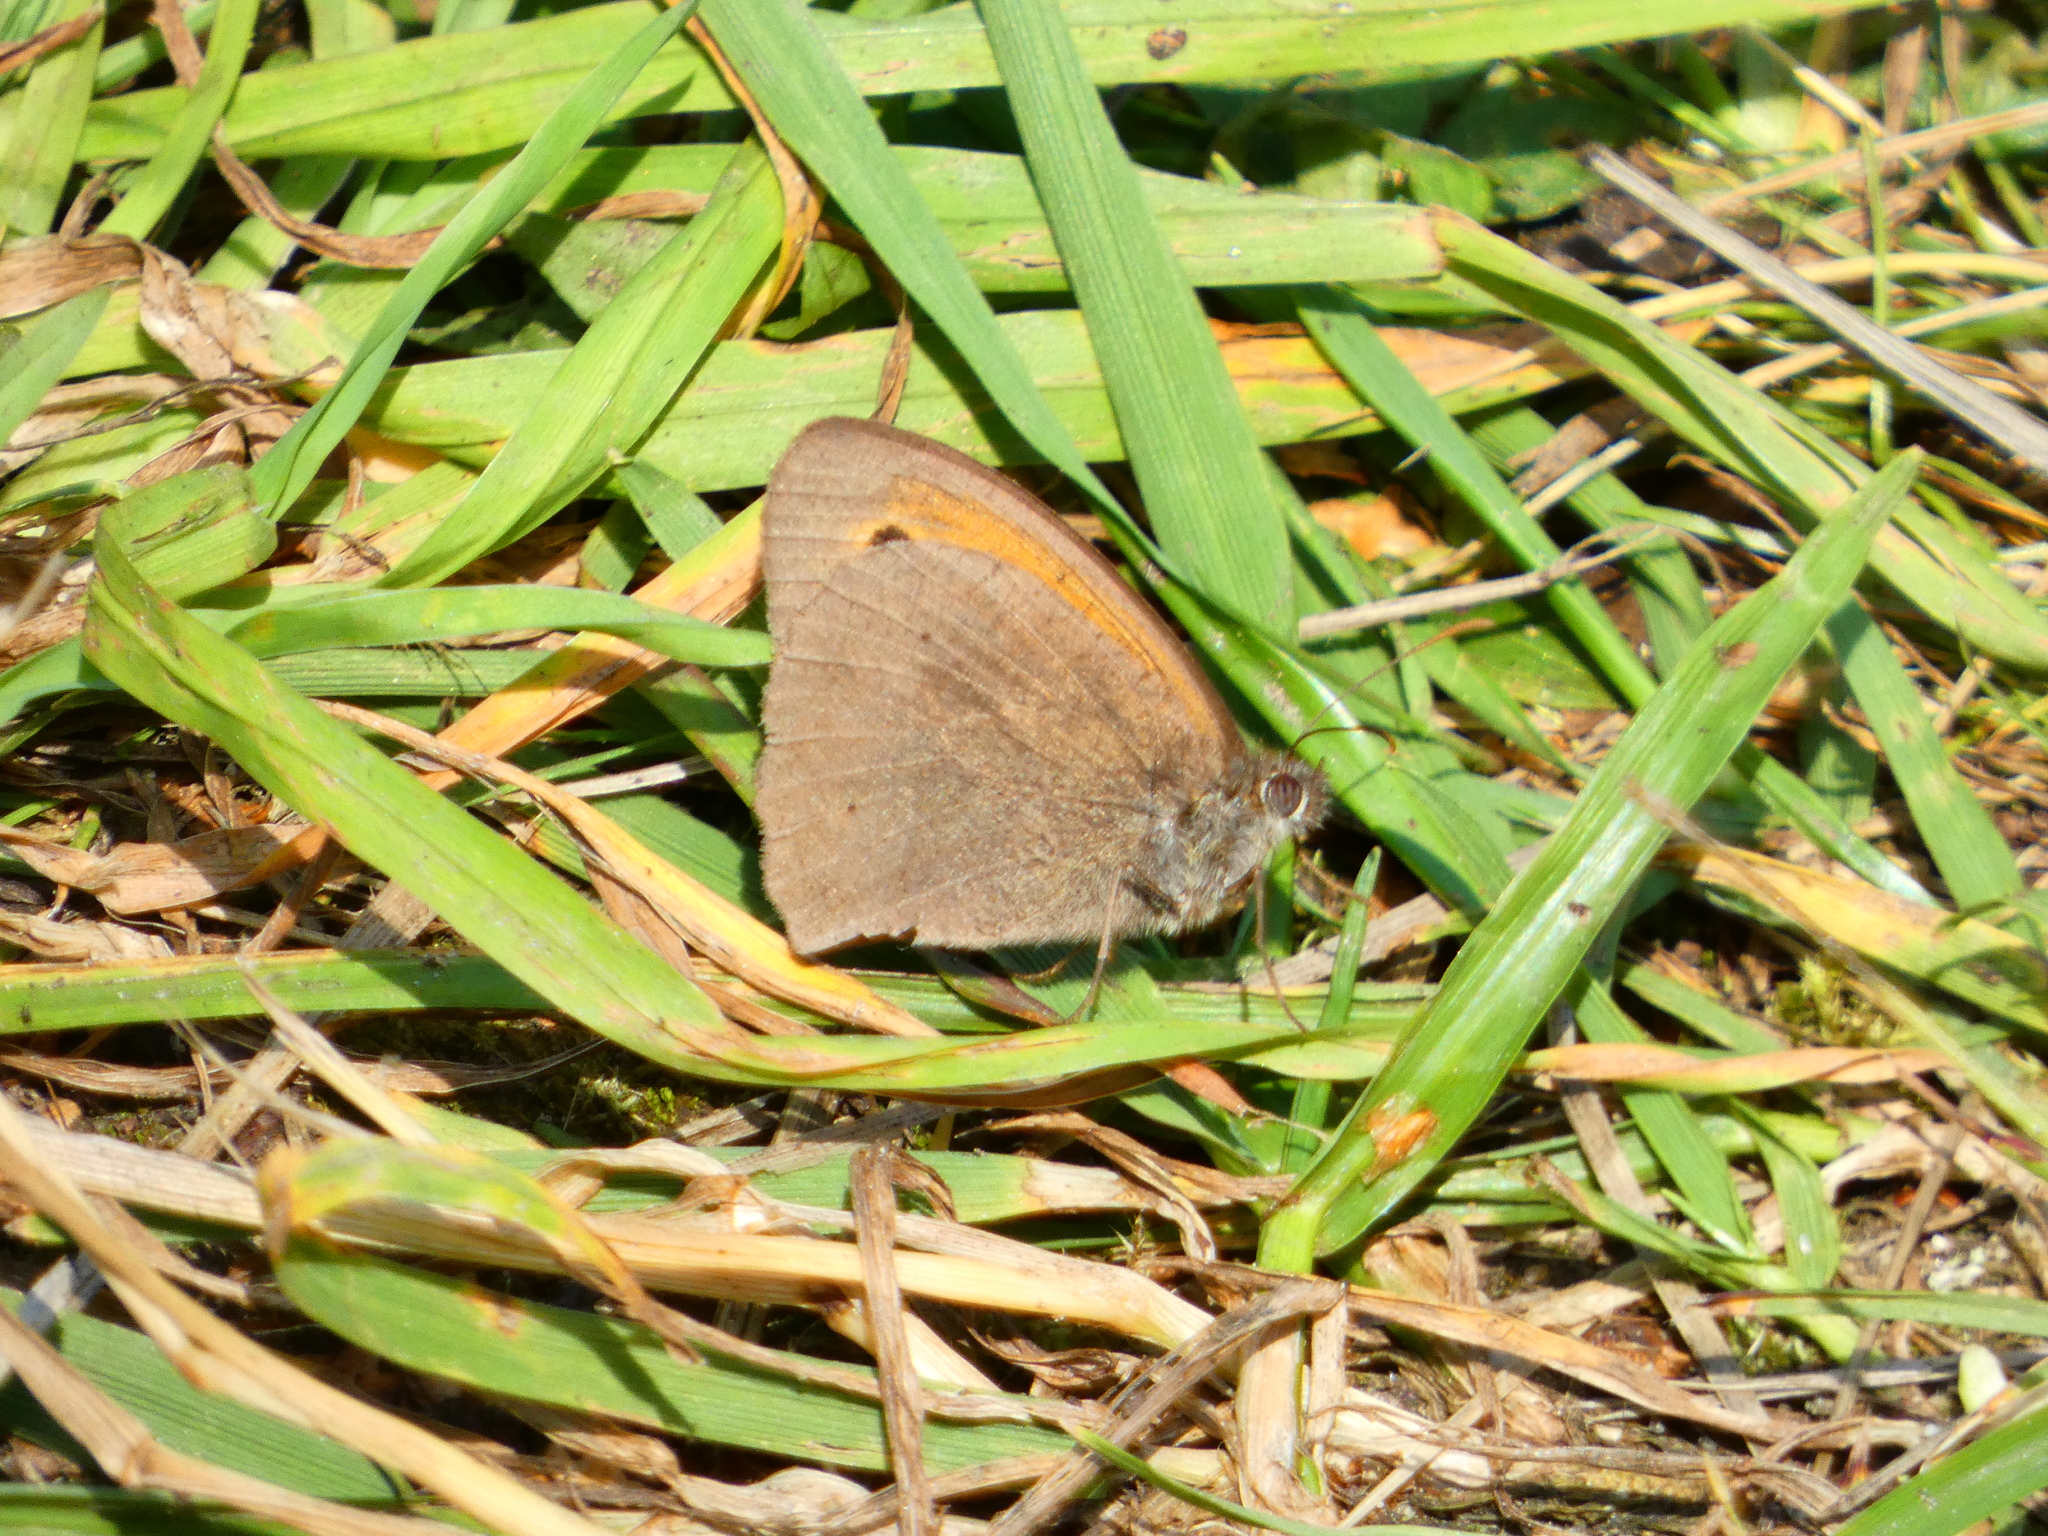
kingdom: Animalia
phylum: Arthropoda
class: Insecta
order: Lepidoptera
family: Nymphalidae
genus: Maniola
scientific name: Maniola jurtina
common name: Meadow brown
